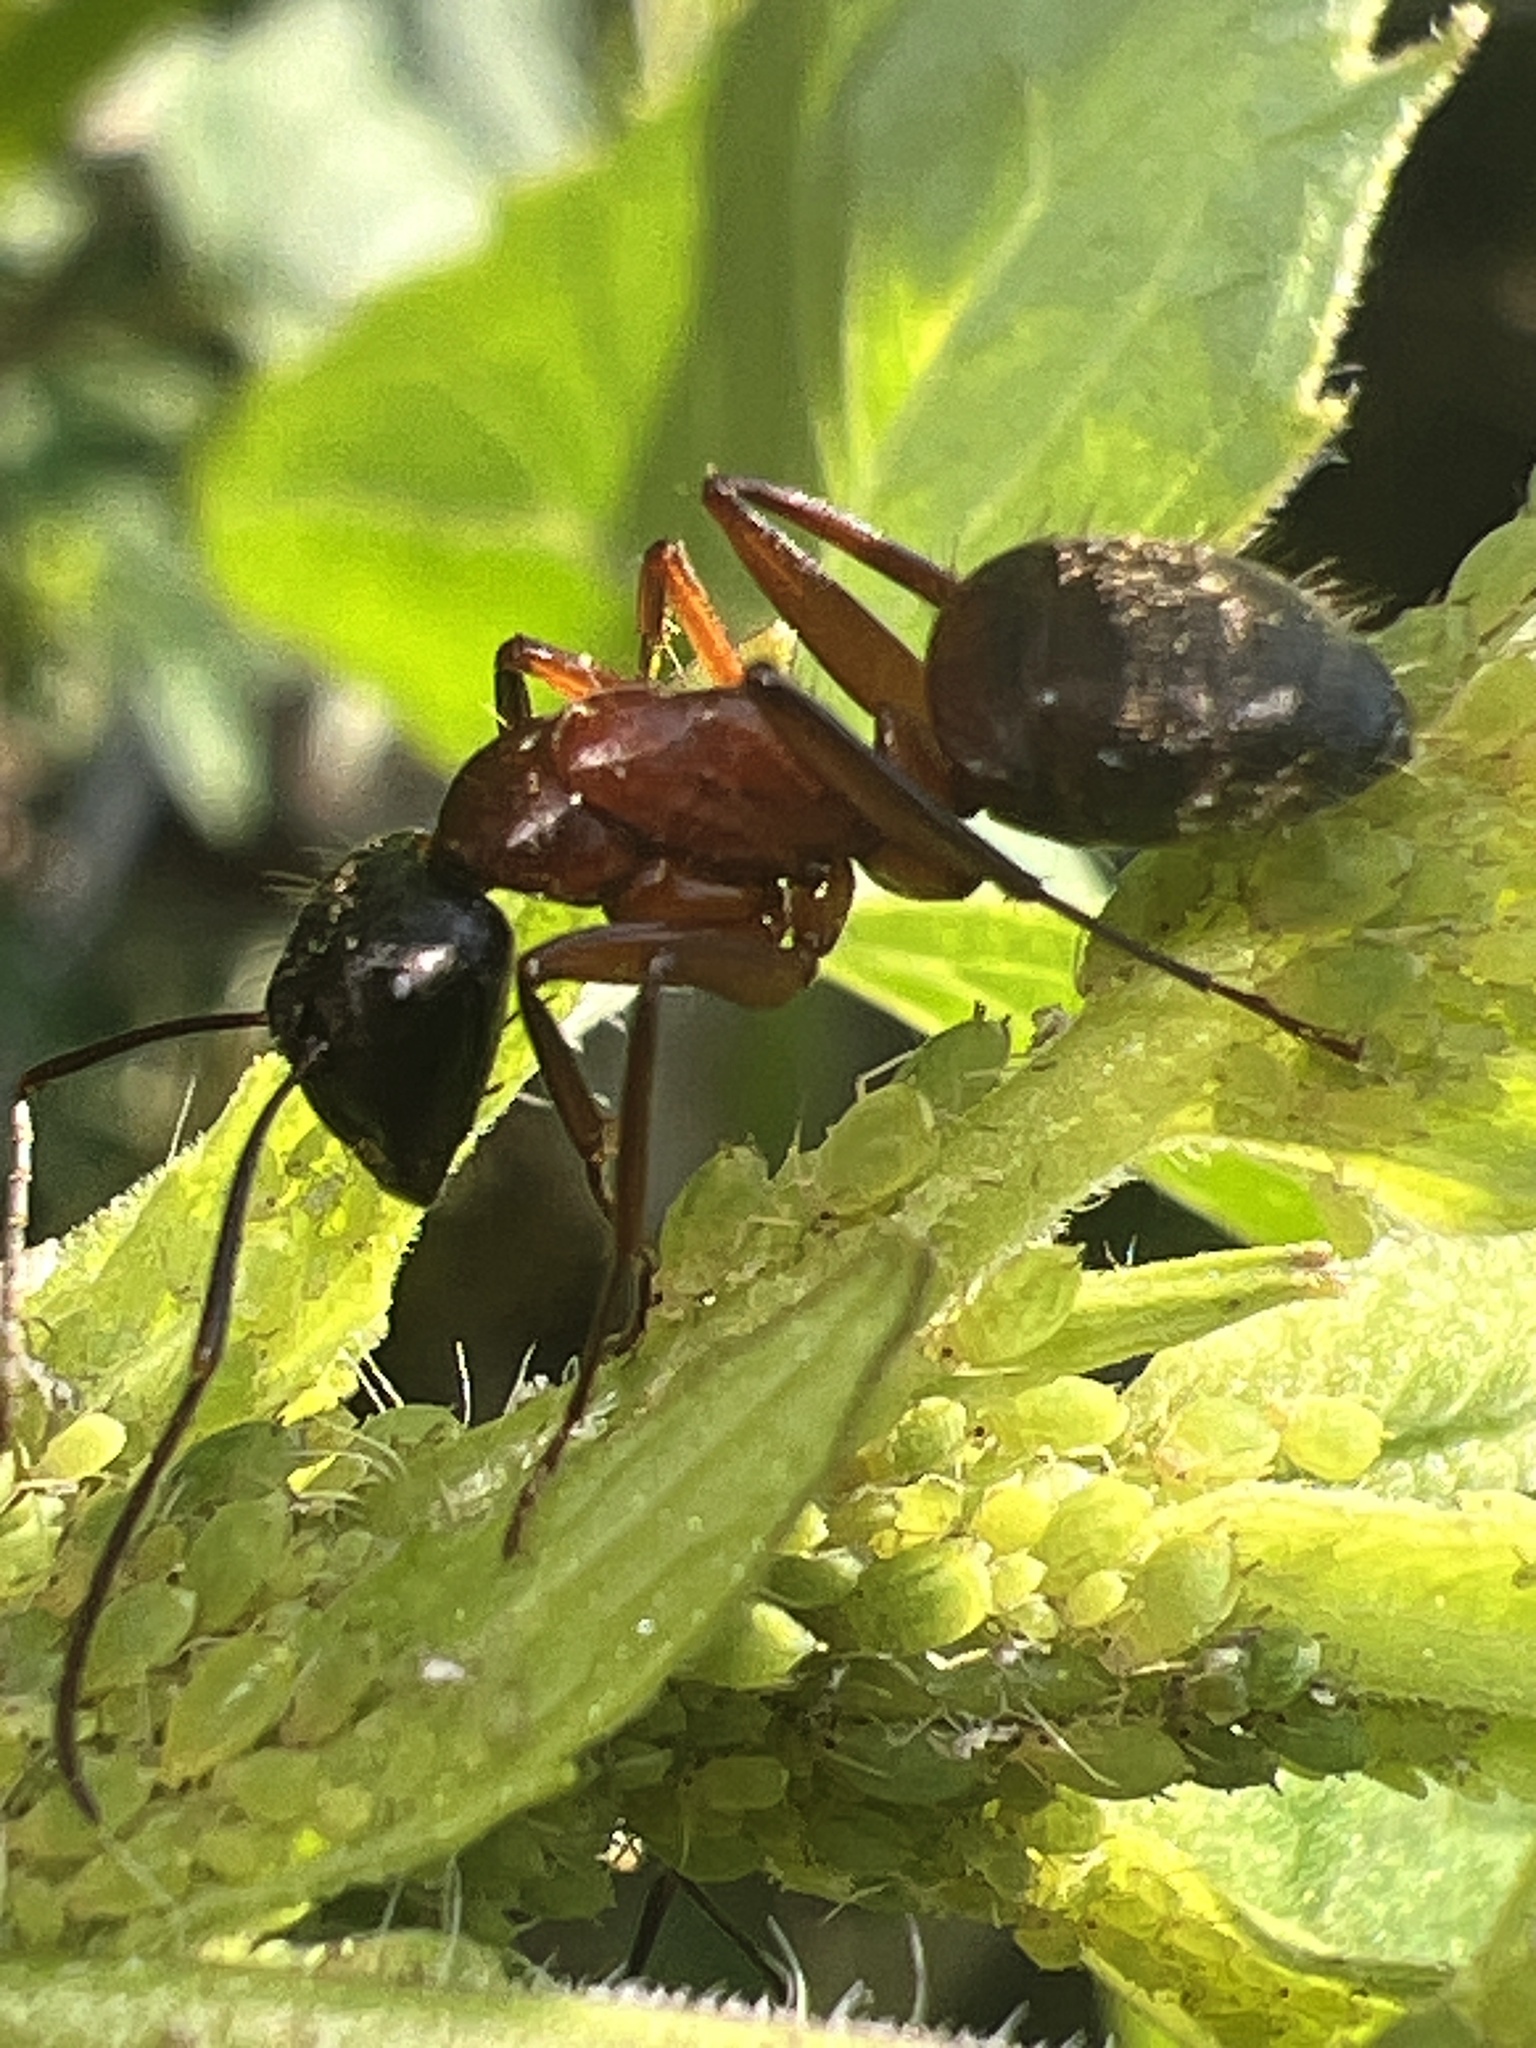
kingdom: Animalia
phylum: Arthropoda
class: Insecta
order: Hymenoptera
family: Formicidae
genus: Camponotus
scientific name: Camponotus chromaiodes
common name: Red carpenter ant
